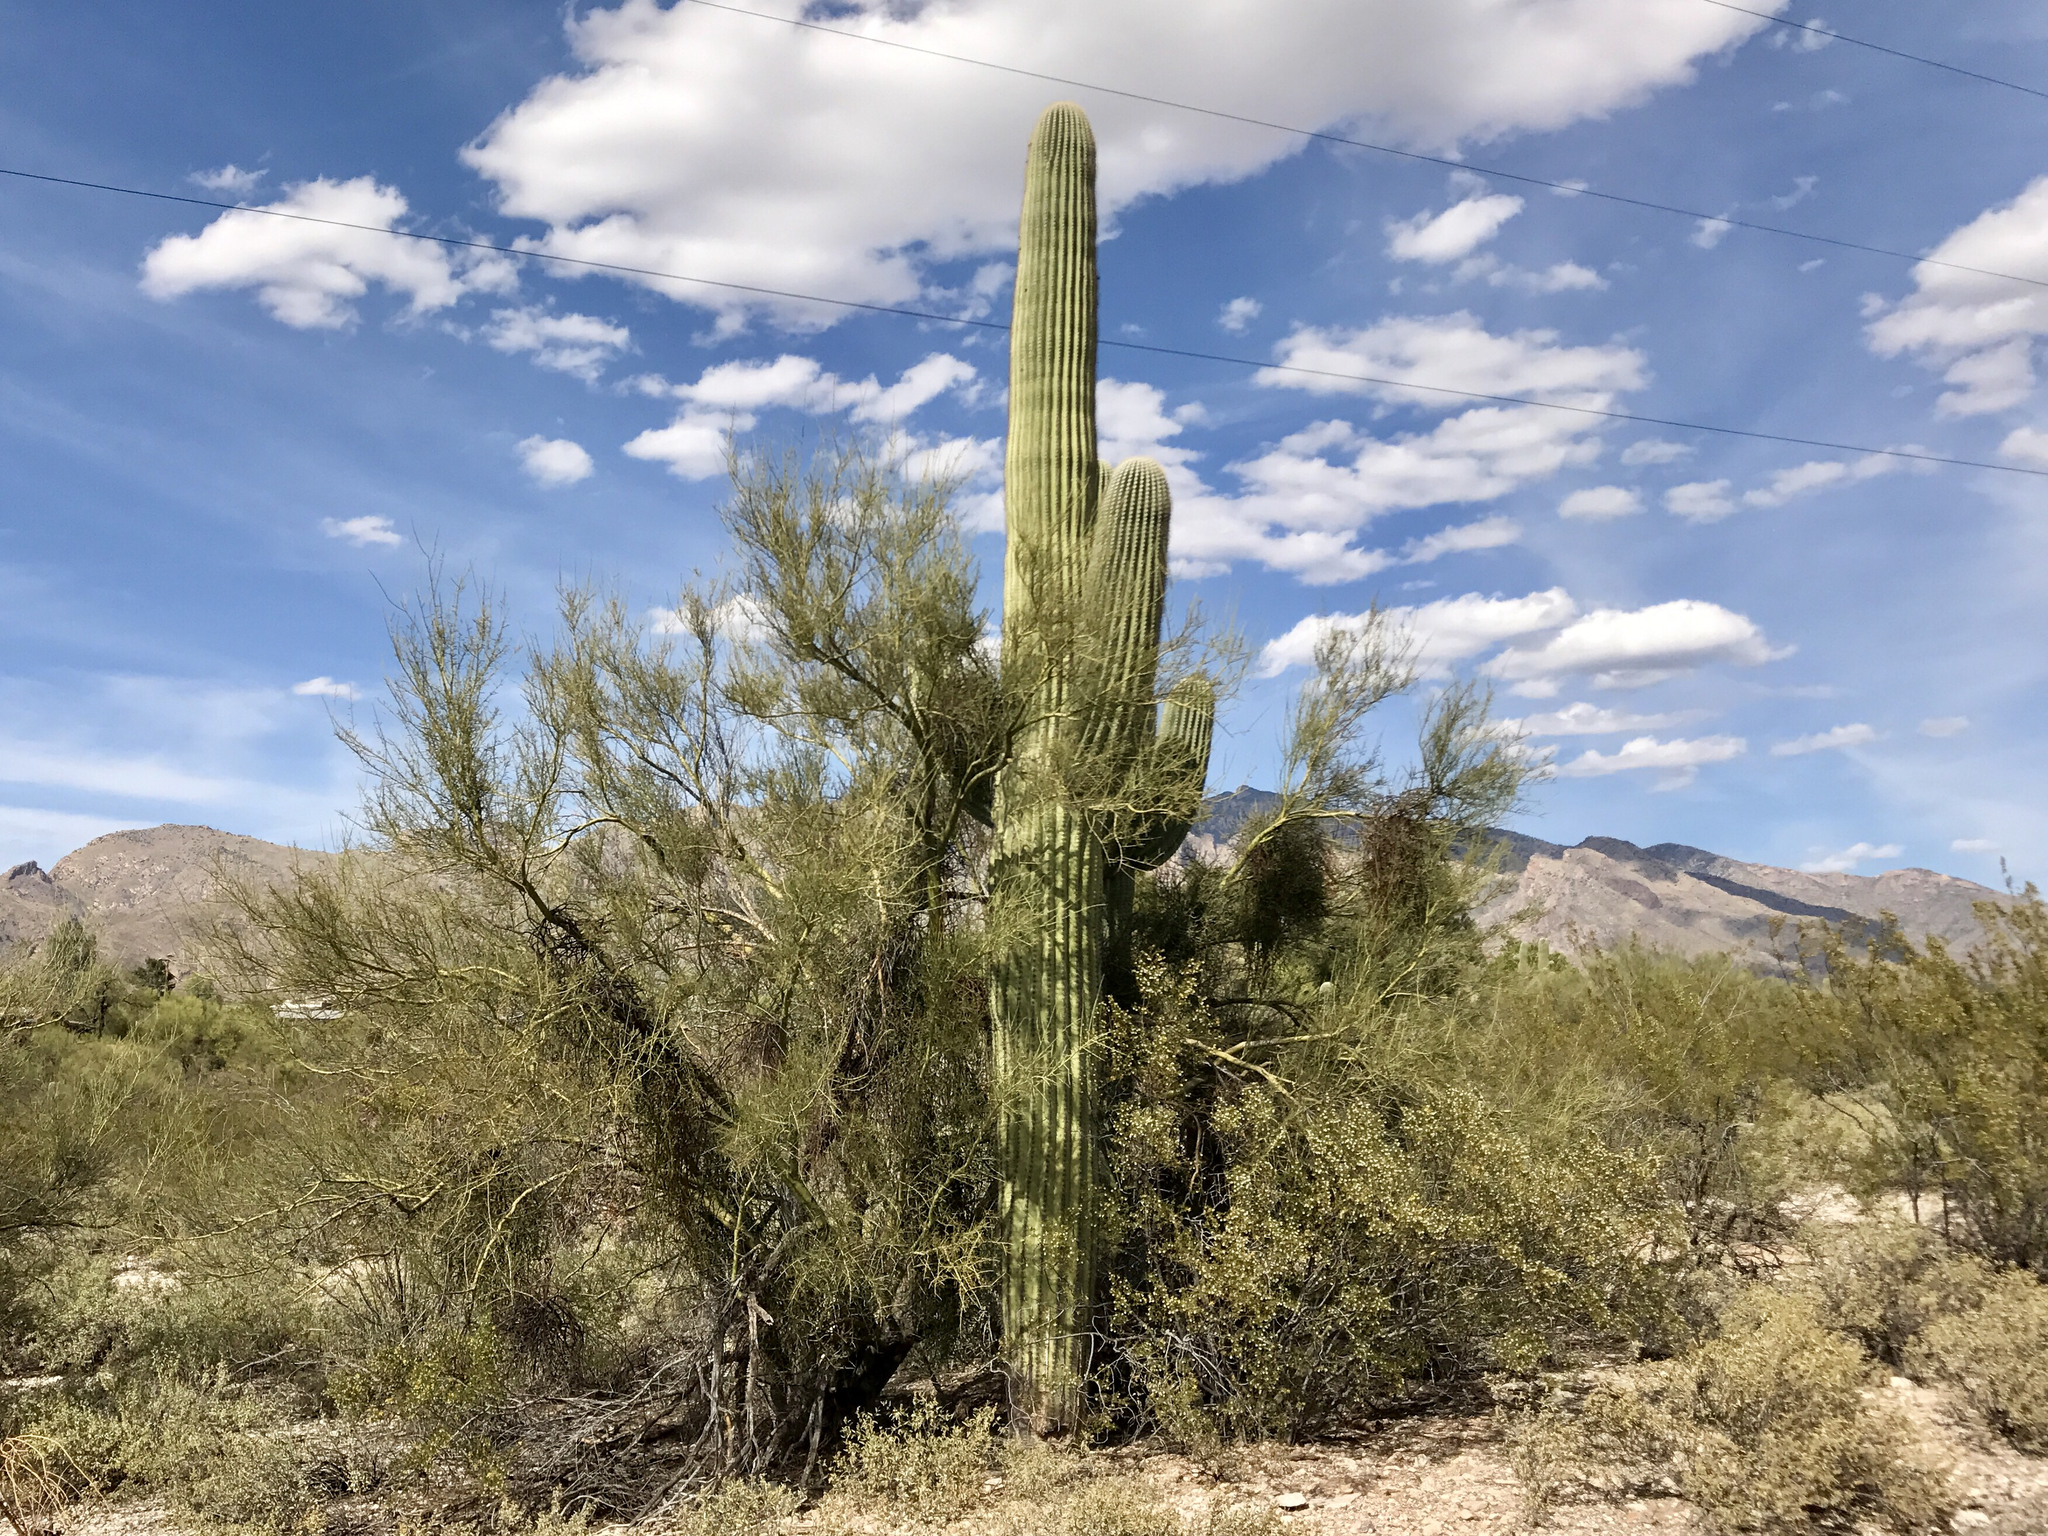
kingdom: Plantae
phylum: Tracheophyta
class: Magnoliopsida
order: Fabales
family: Fabaceae
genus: Parkinsonia
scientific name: Parkinsonia microphylla
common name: Yellow paloverde
